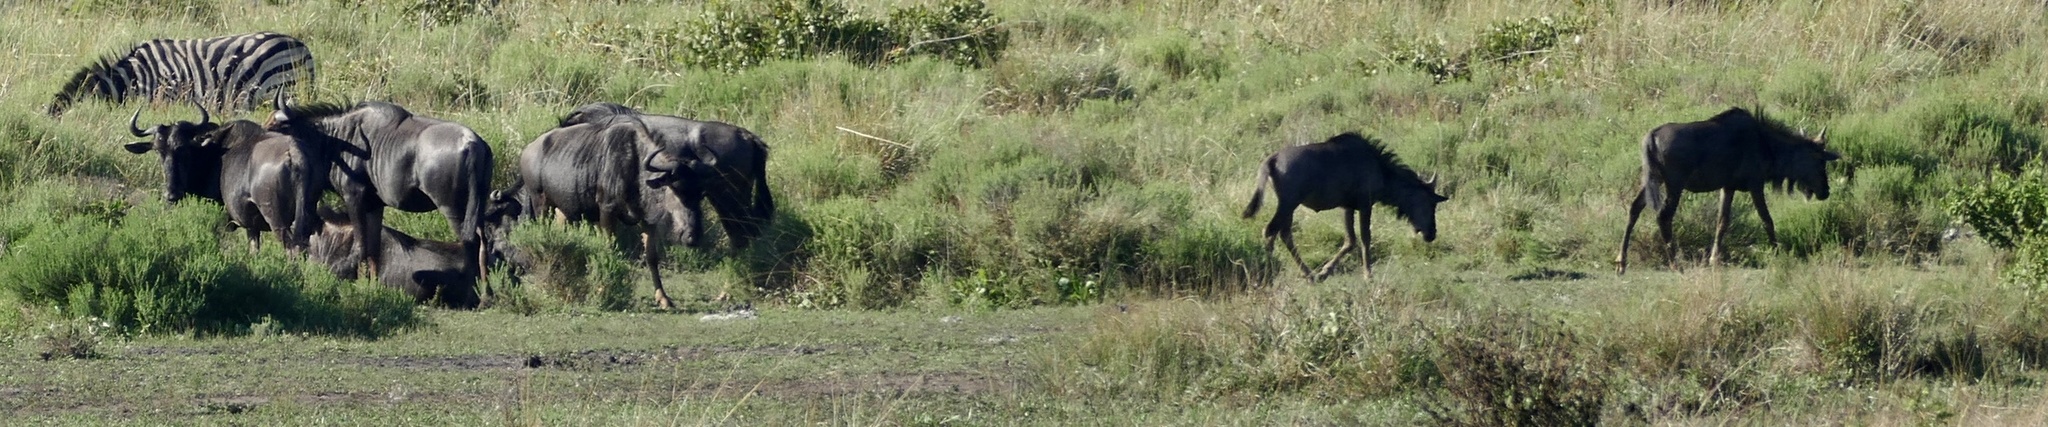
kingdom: Animalia
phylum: Chordata
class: Mammalia
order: Artiodactyla
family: Bovidae
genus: Connochaetes
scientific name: Connochaetes taurinus
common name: Blue wildebeest
